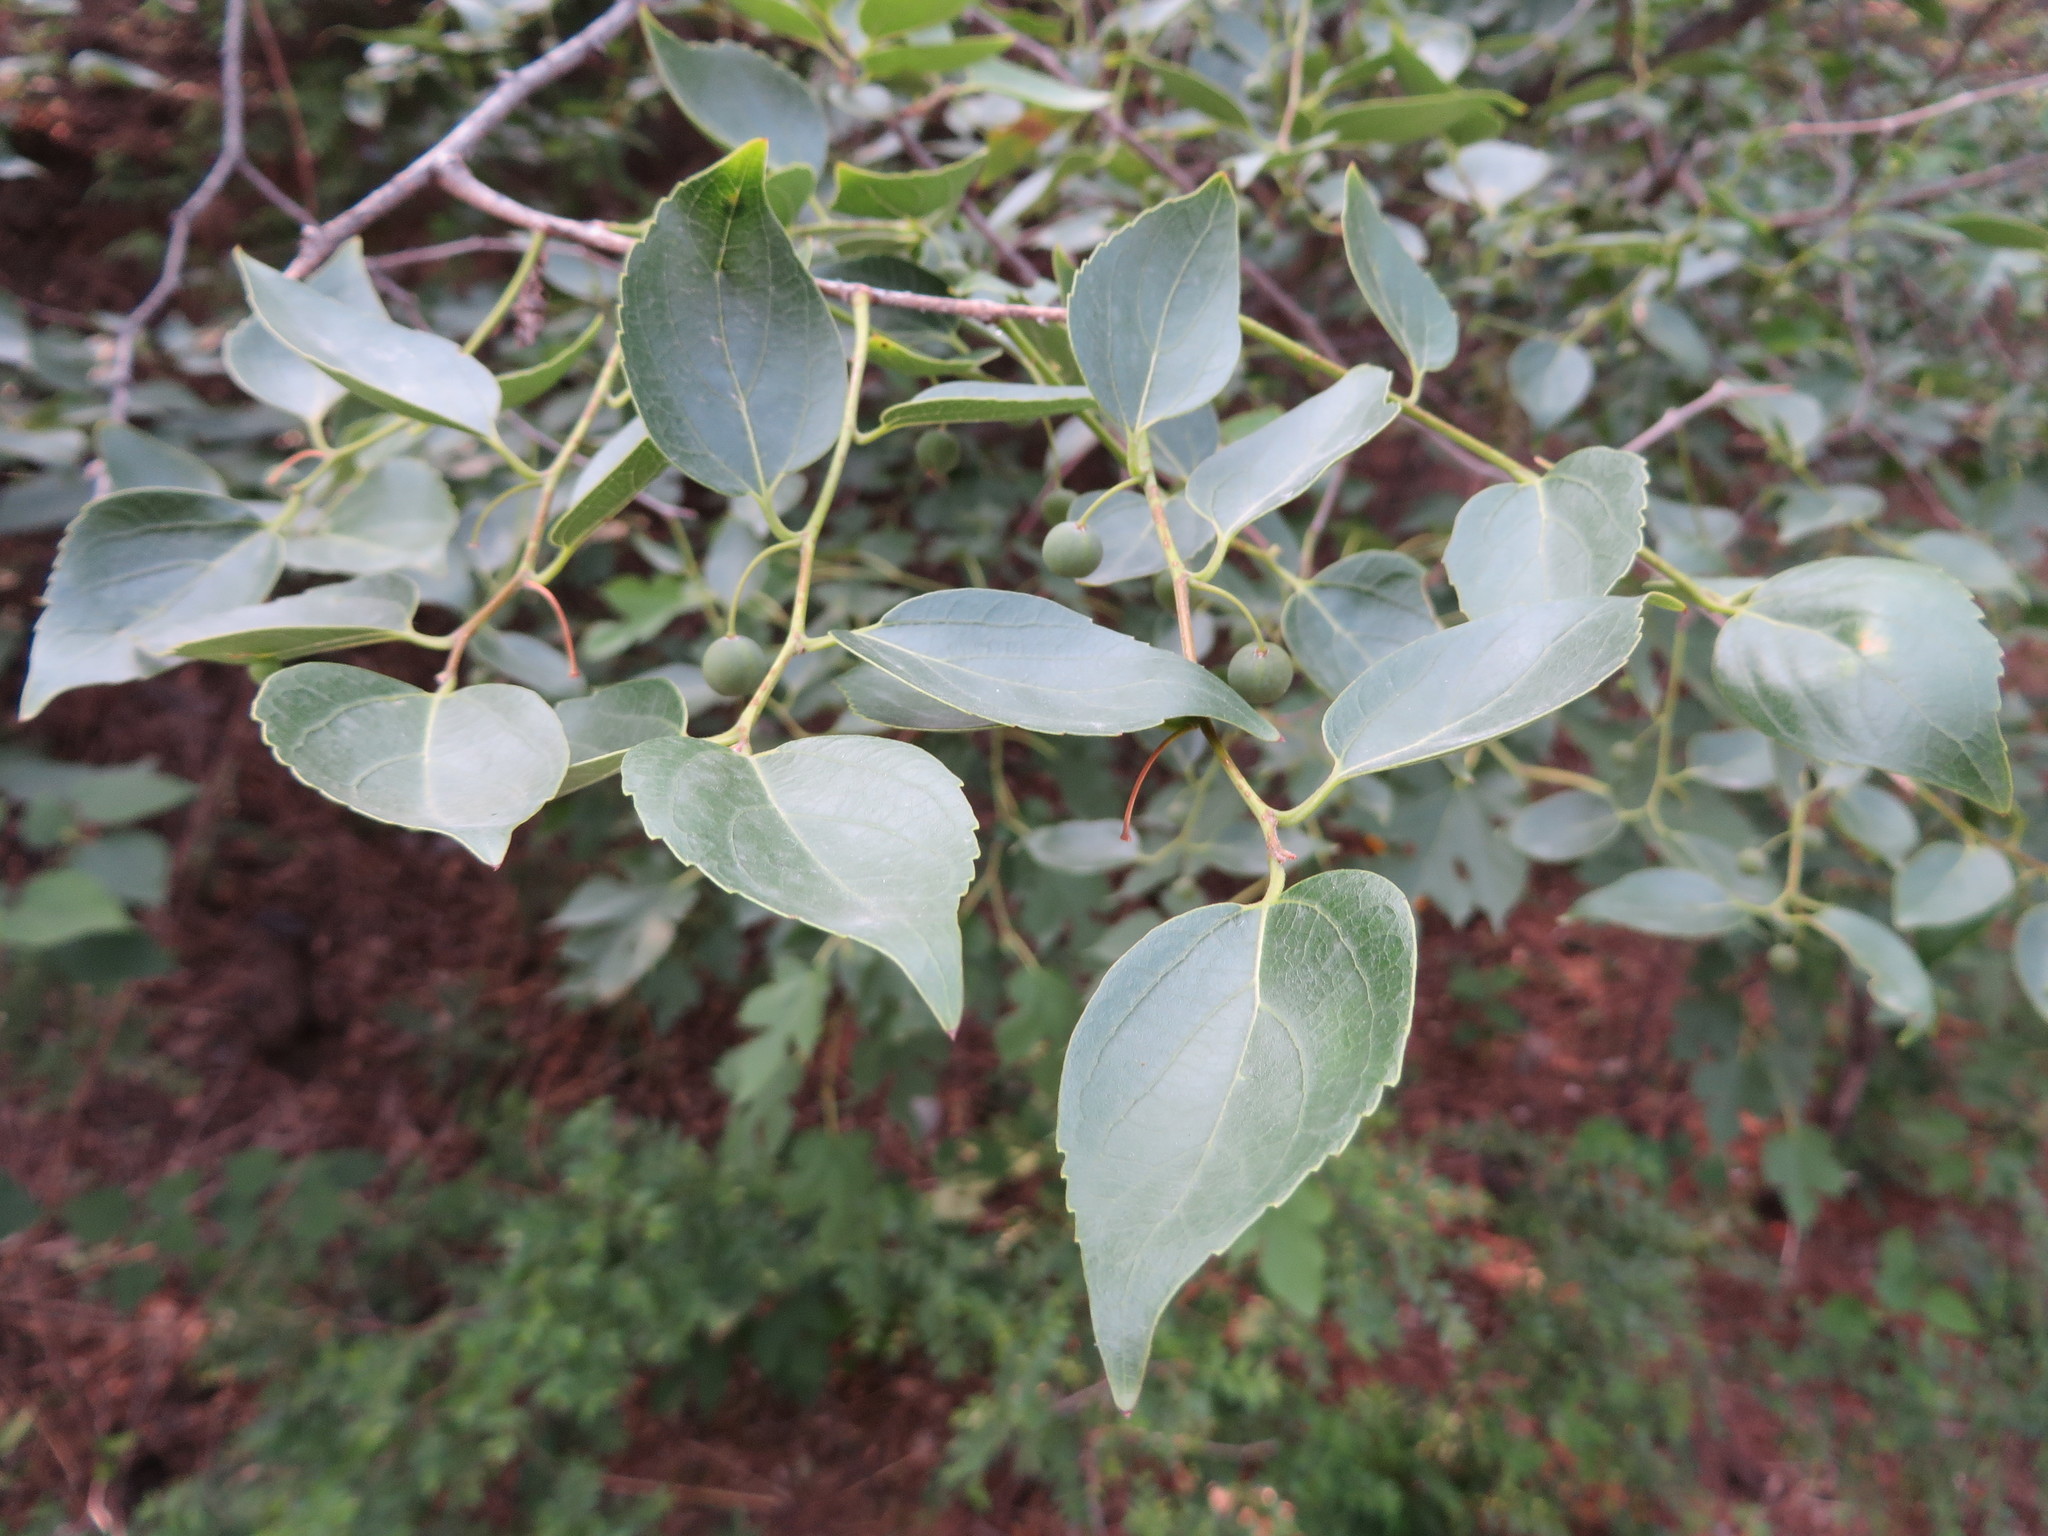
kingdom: Plantae
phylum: Tracheophyta
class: Magnoliopsida
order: Rosales
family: Cannabaceae
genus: Celtis
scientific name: Celtis bungeana
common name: Bunge's hackberry
